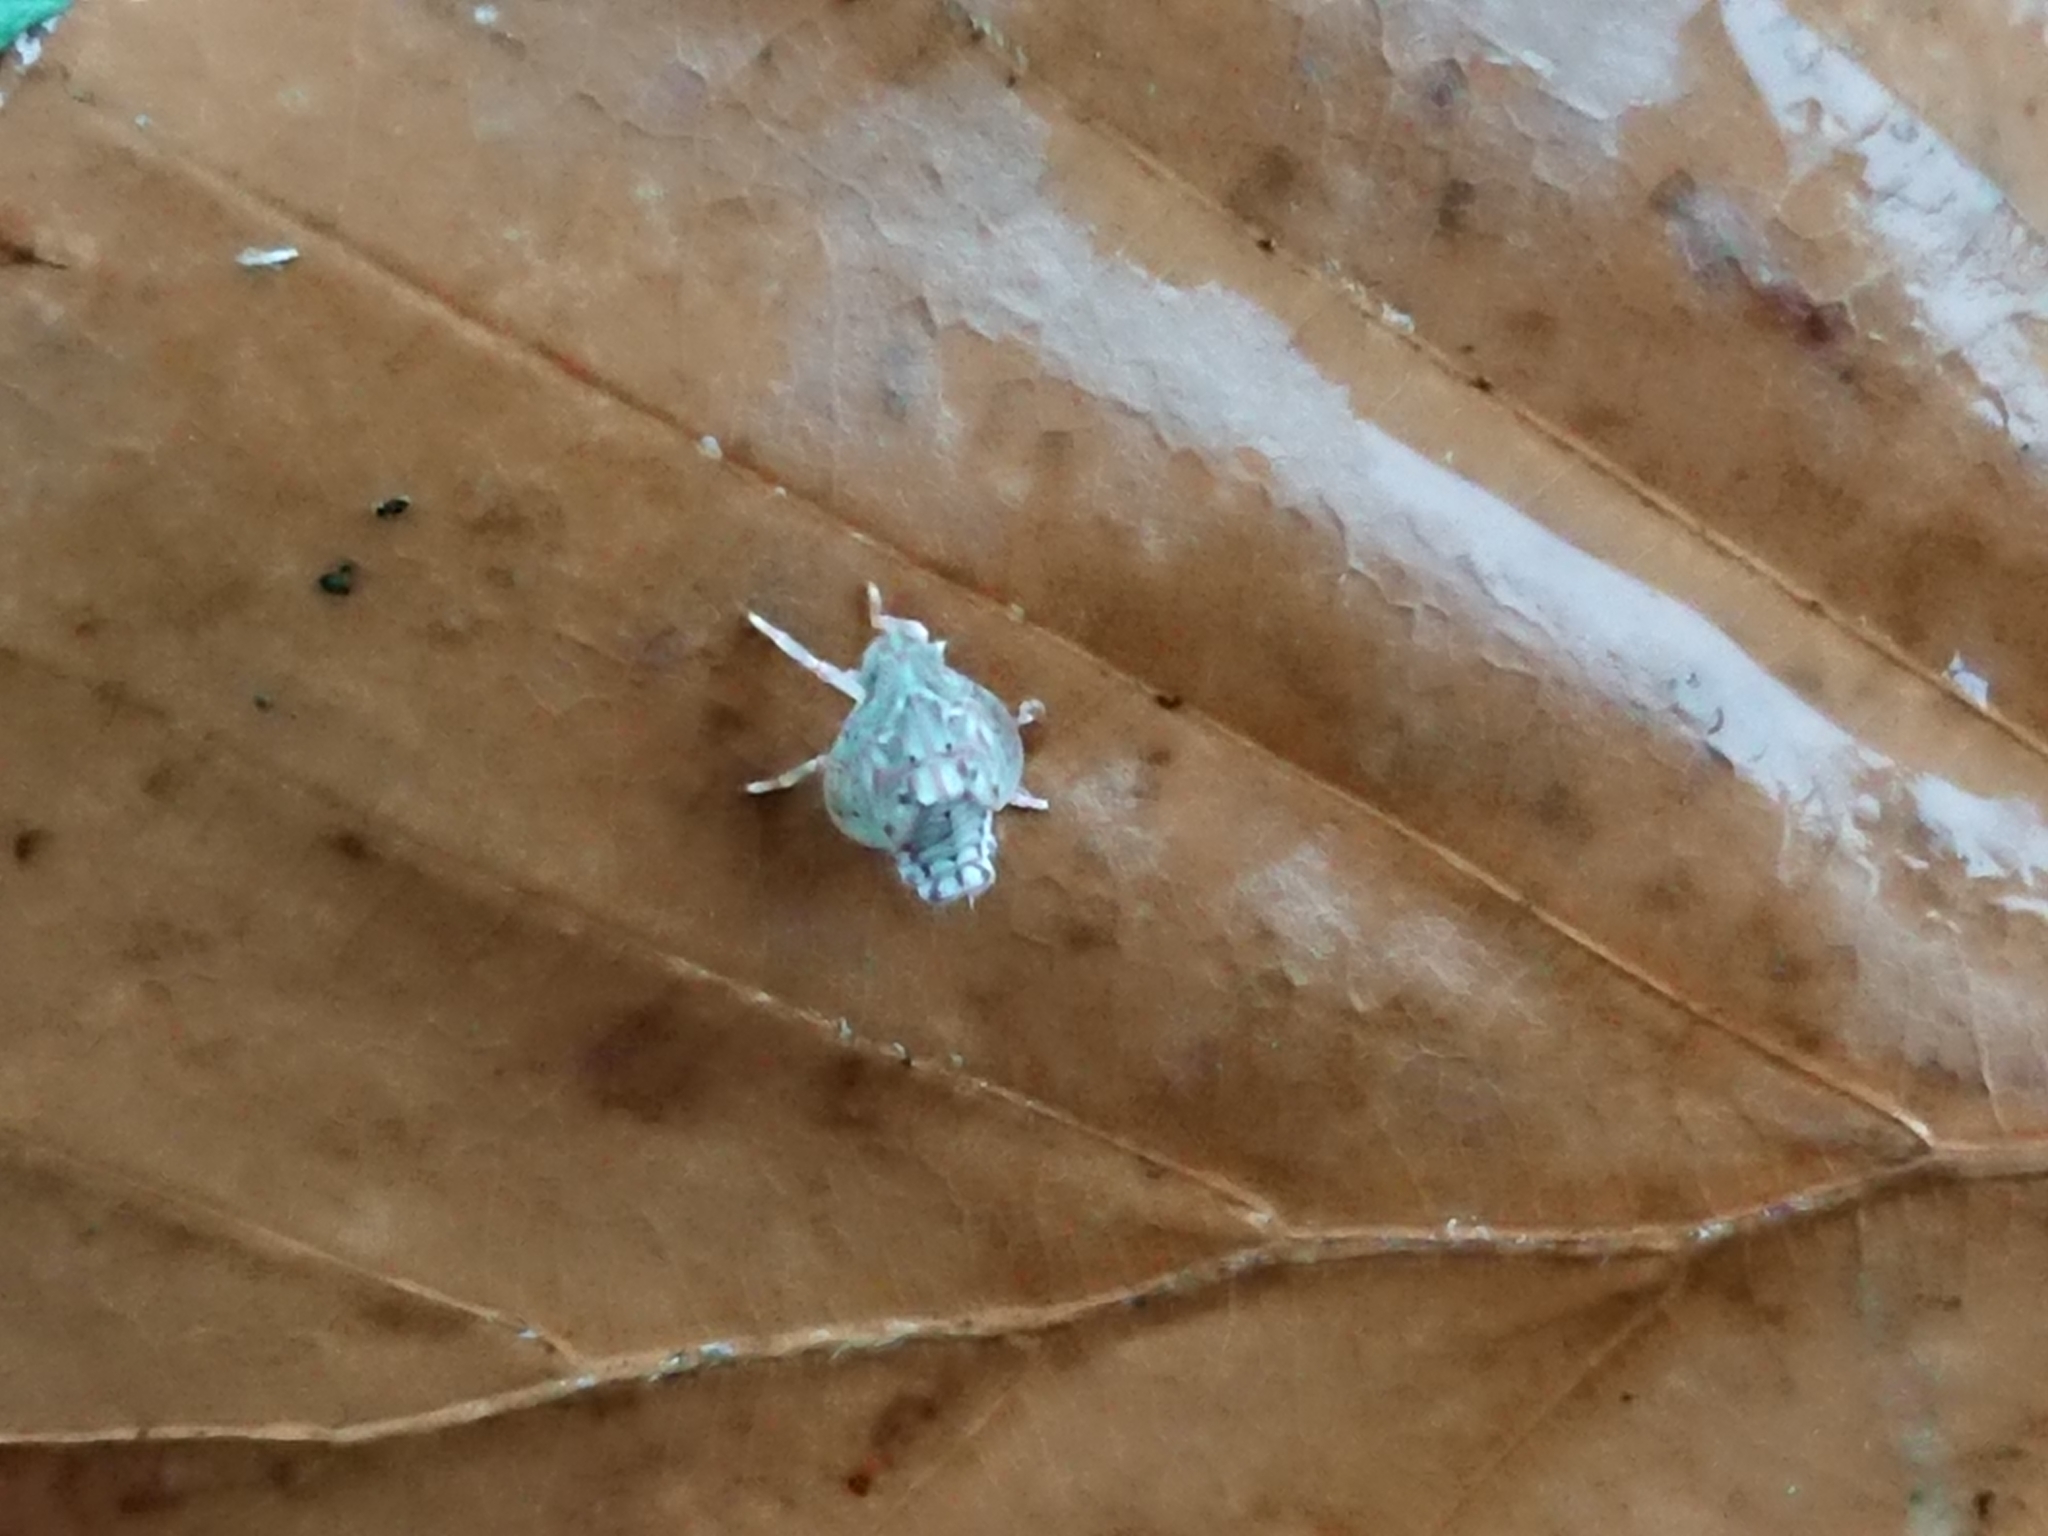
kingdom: Animalia
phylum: Arthropoda
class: Insecta
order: Hemiptera
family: Flatidae
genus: Siphanta
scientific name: Siphanta acuta
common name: Torpedo bug
